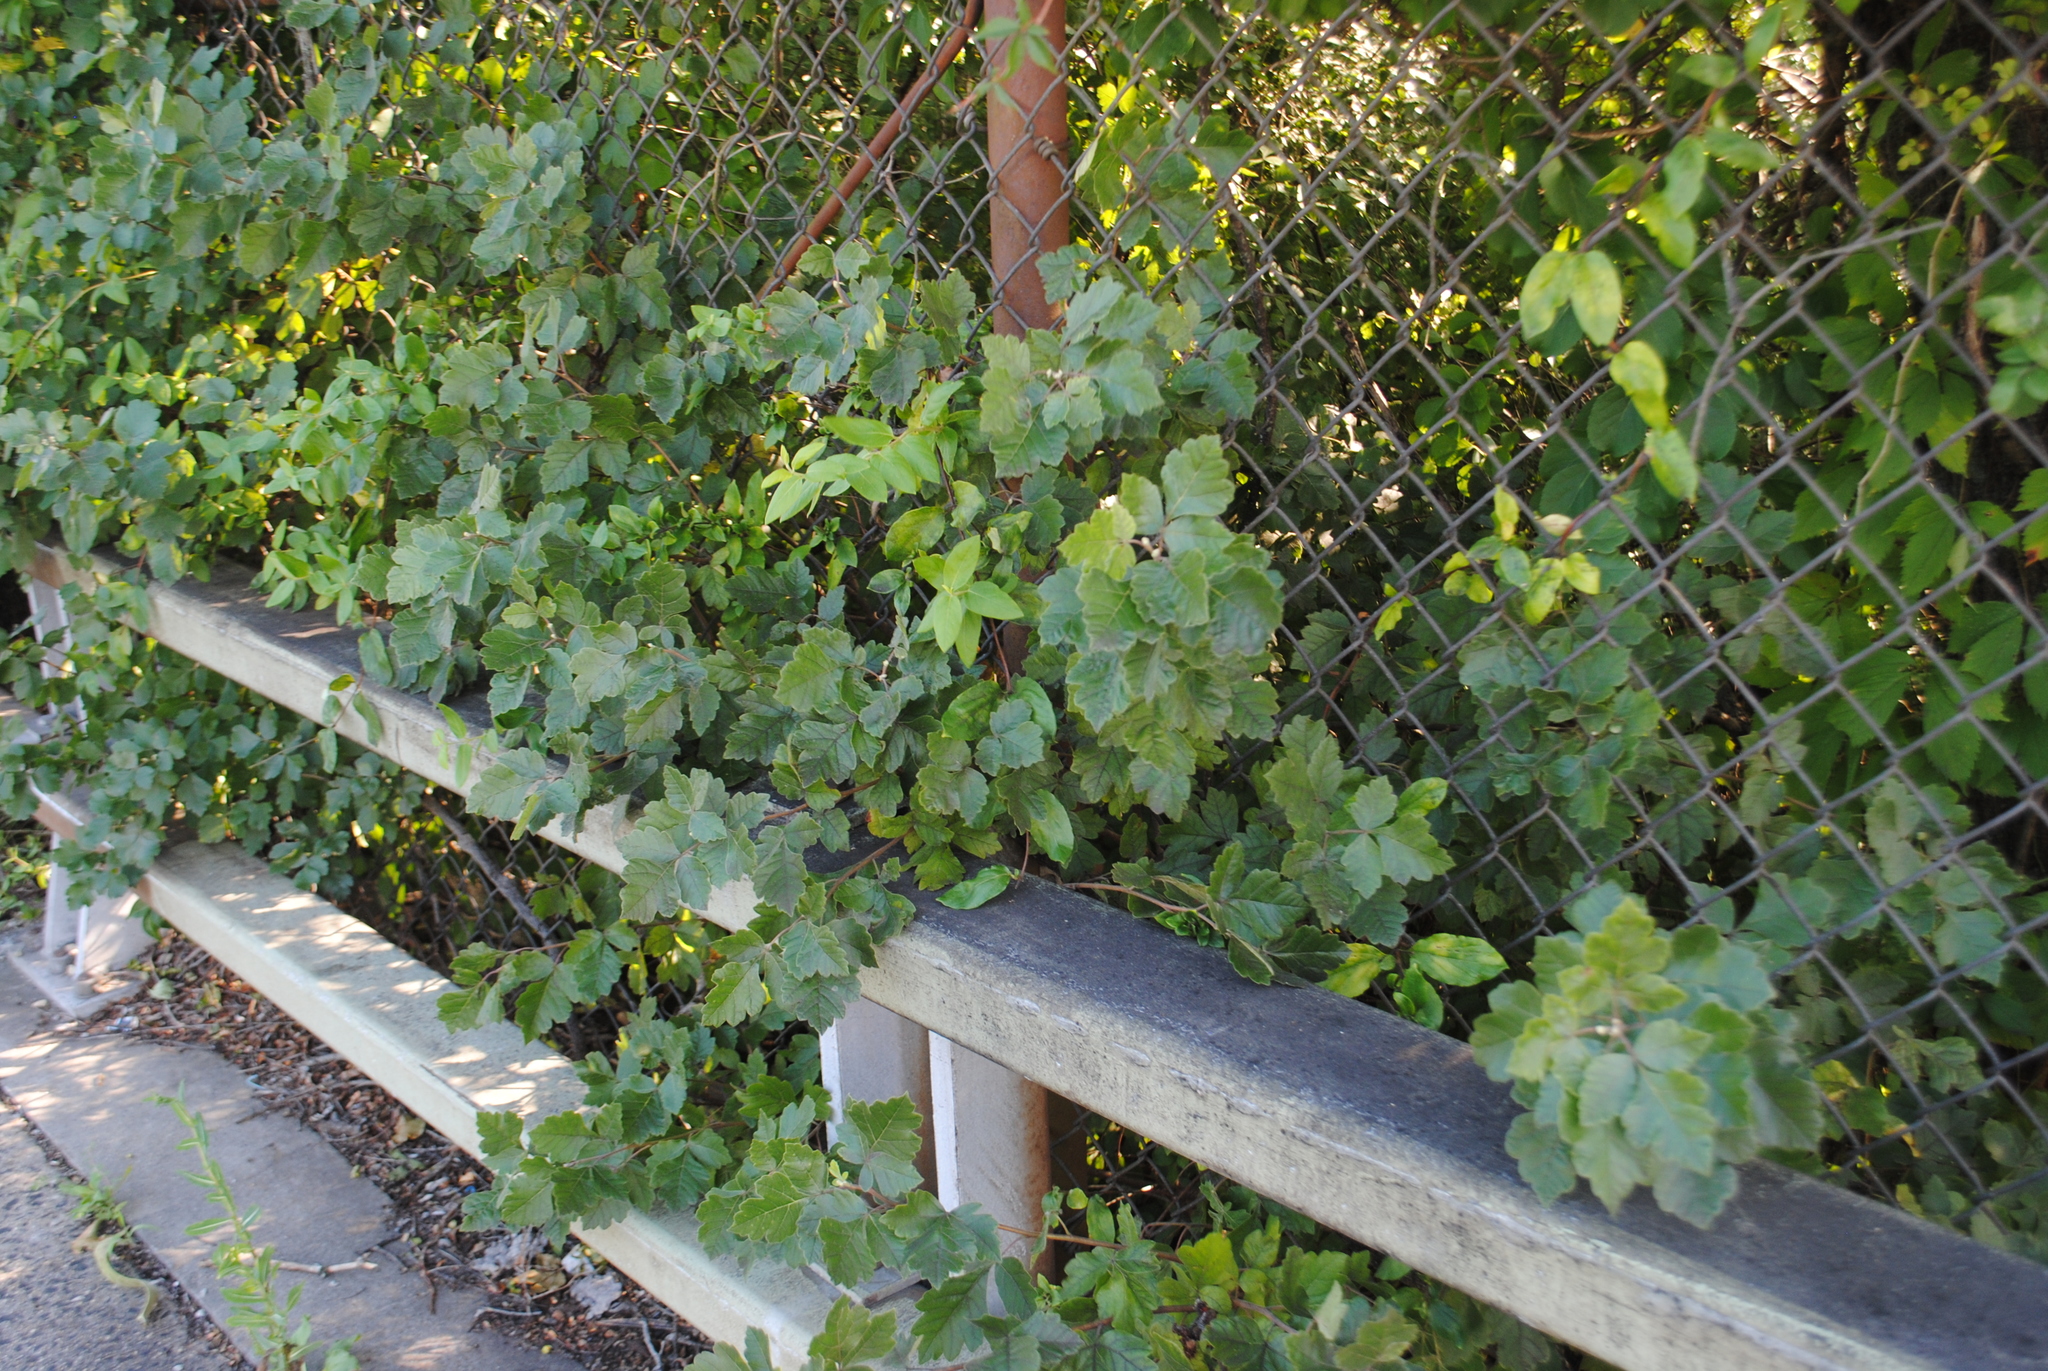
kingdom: Plantae
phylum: Tracheophyta
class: Magnoliopsida
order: Sapindales
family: Anacardiaceae
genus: Rhus
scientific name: Rhus aromatica
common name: Aromatic sumac
